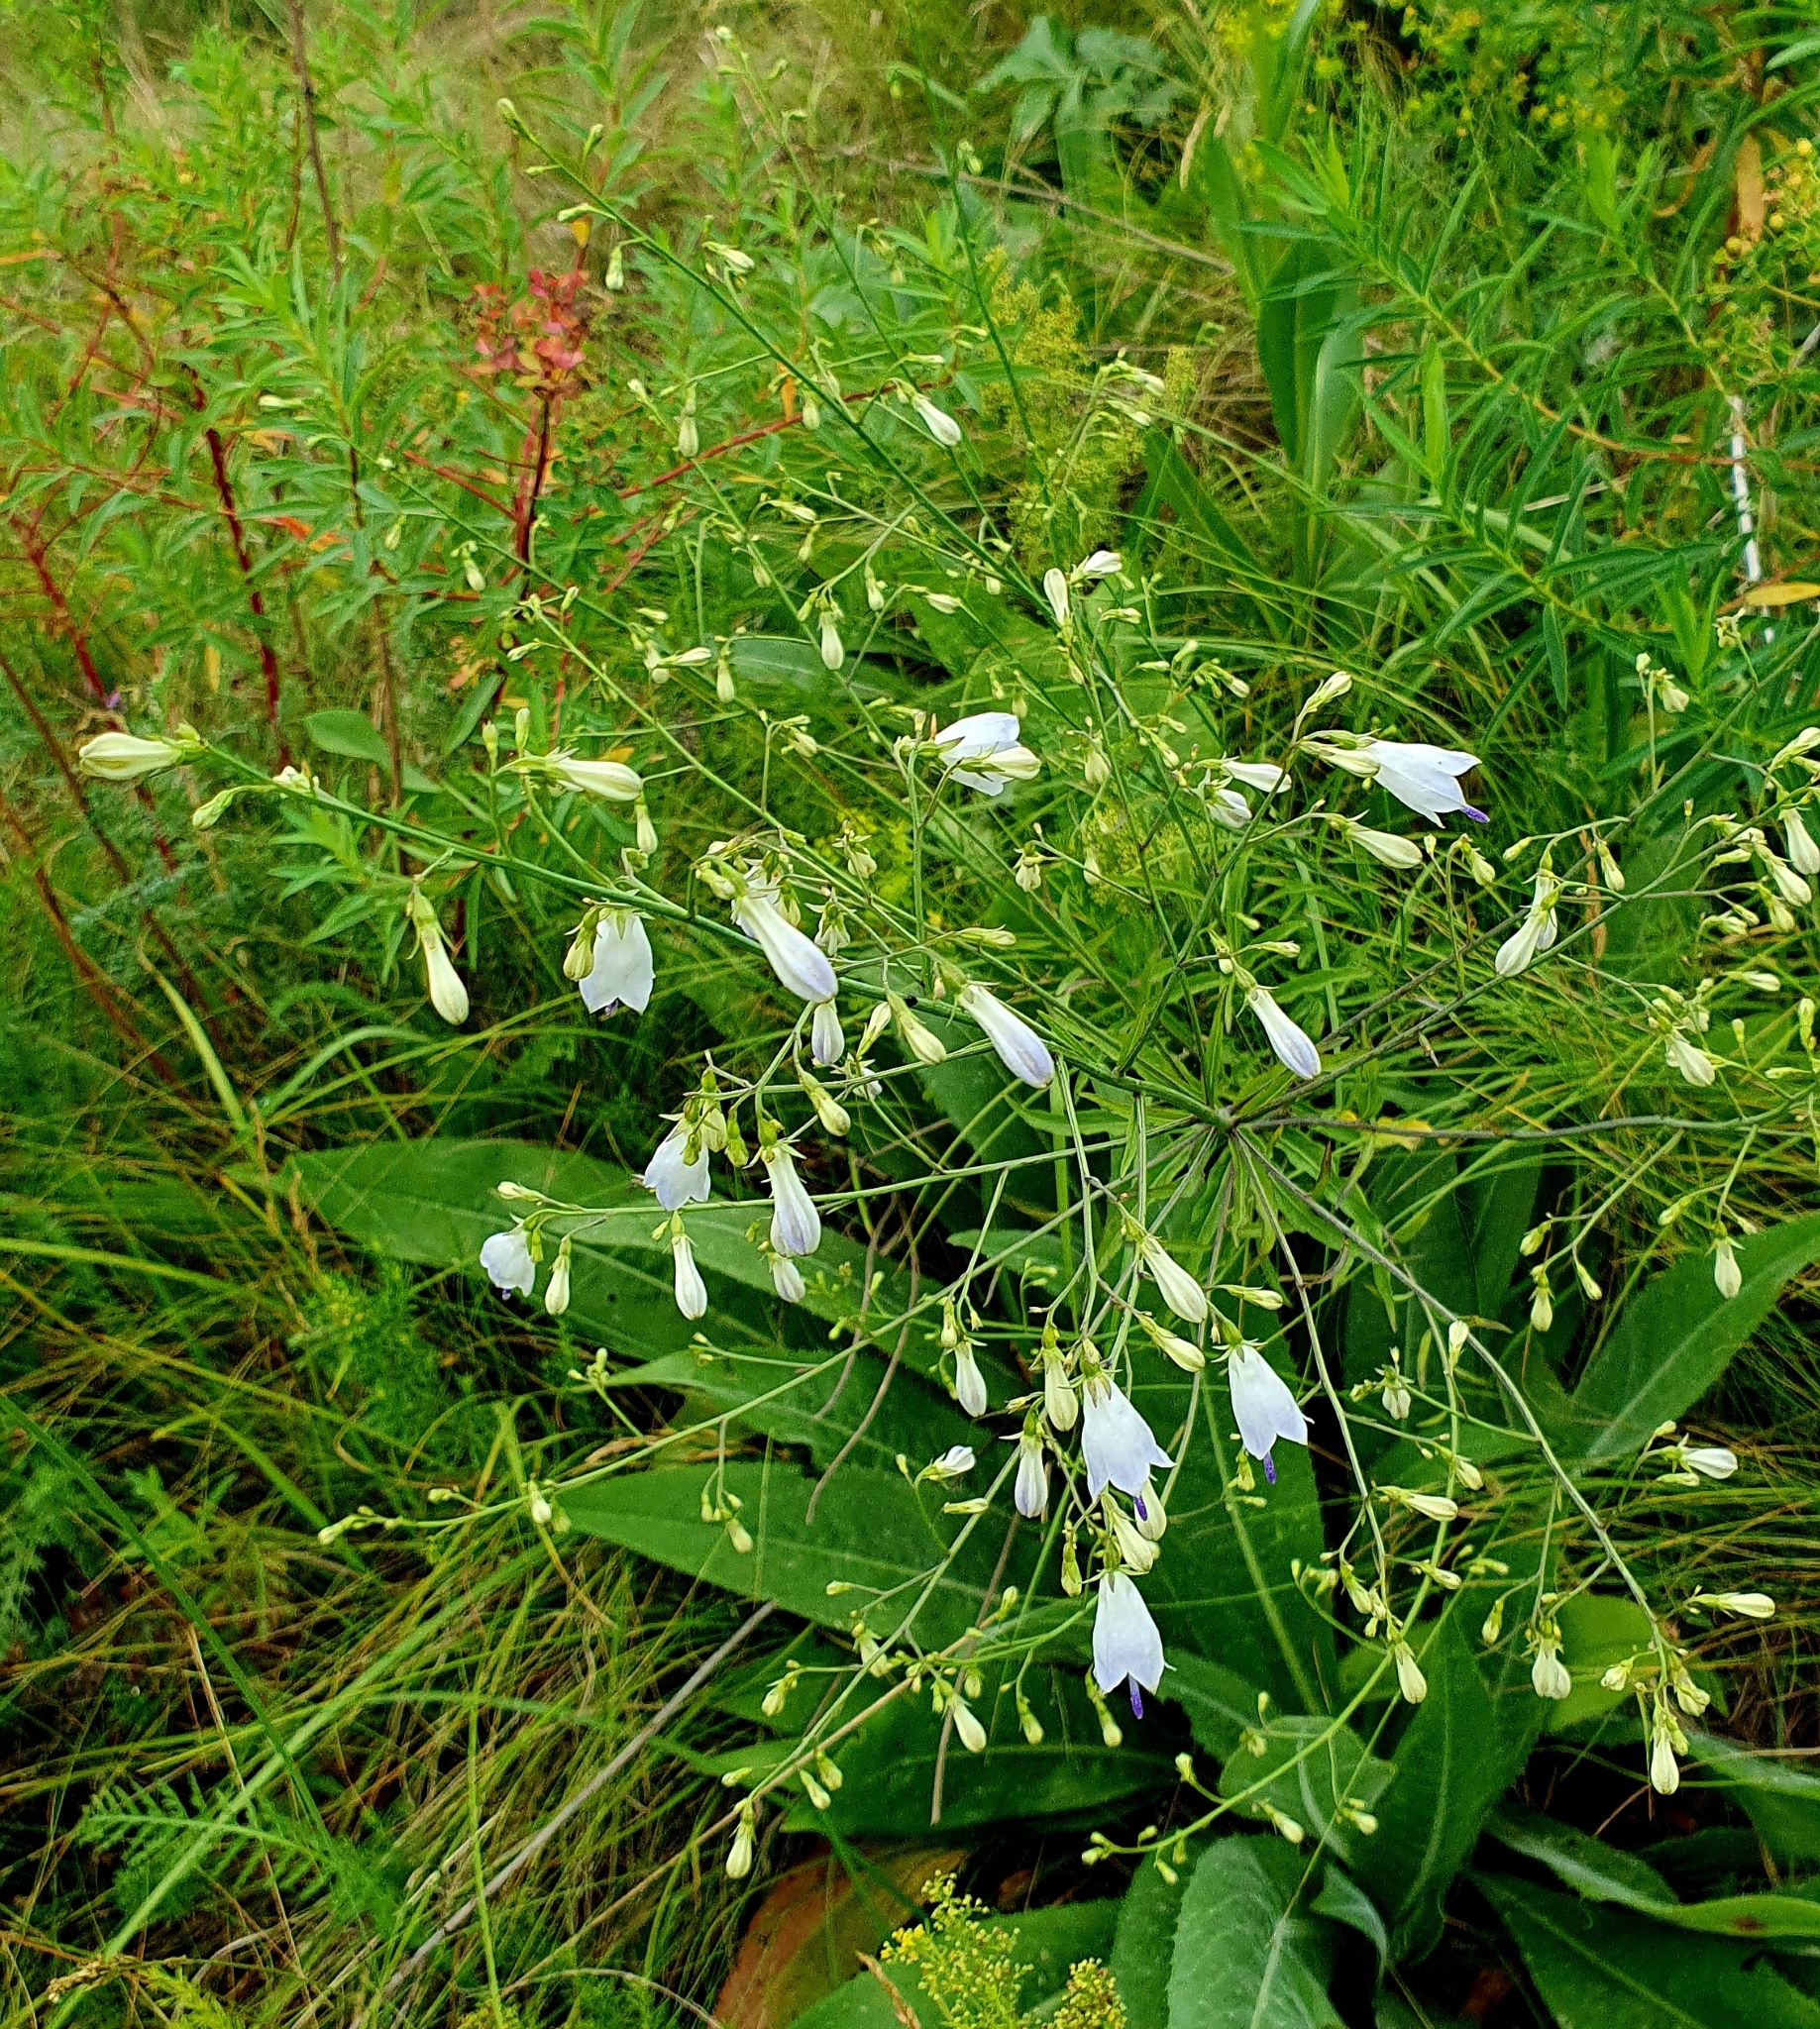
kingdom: Plantae
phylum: Tracheophyta
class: Magnoliopsida
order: Asterales
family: Campanulaceae
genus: Adenophora
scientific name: Adenophora liliifolia
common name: Lilyleaf ladybells
